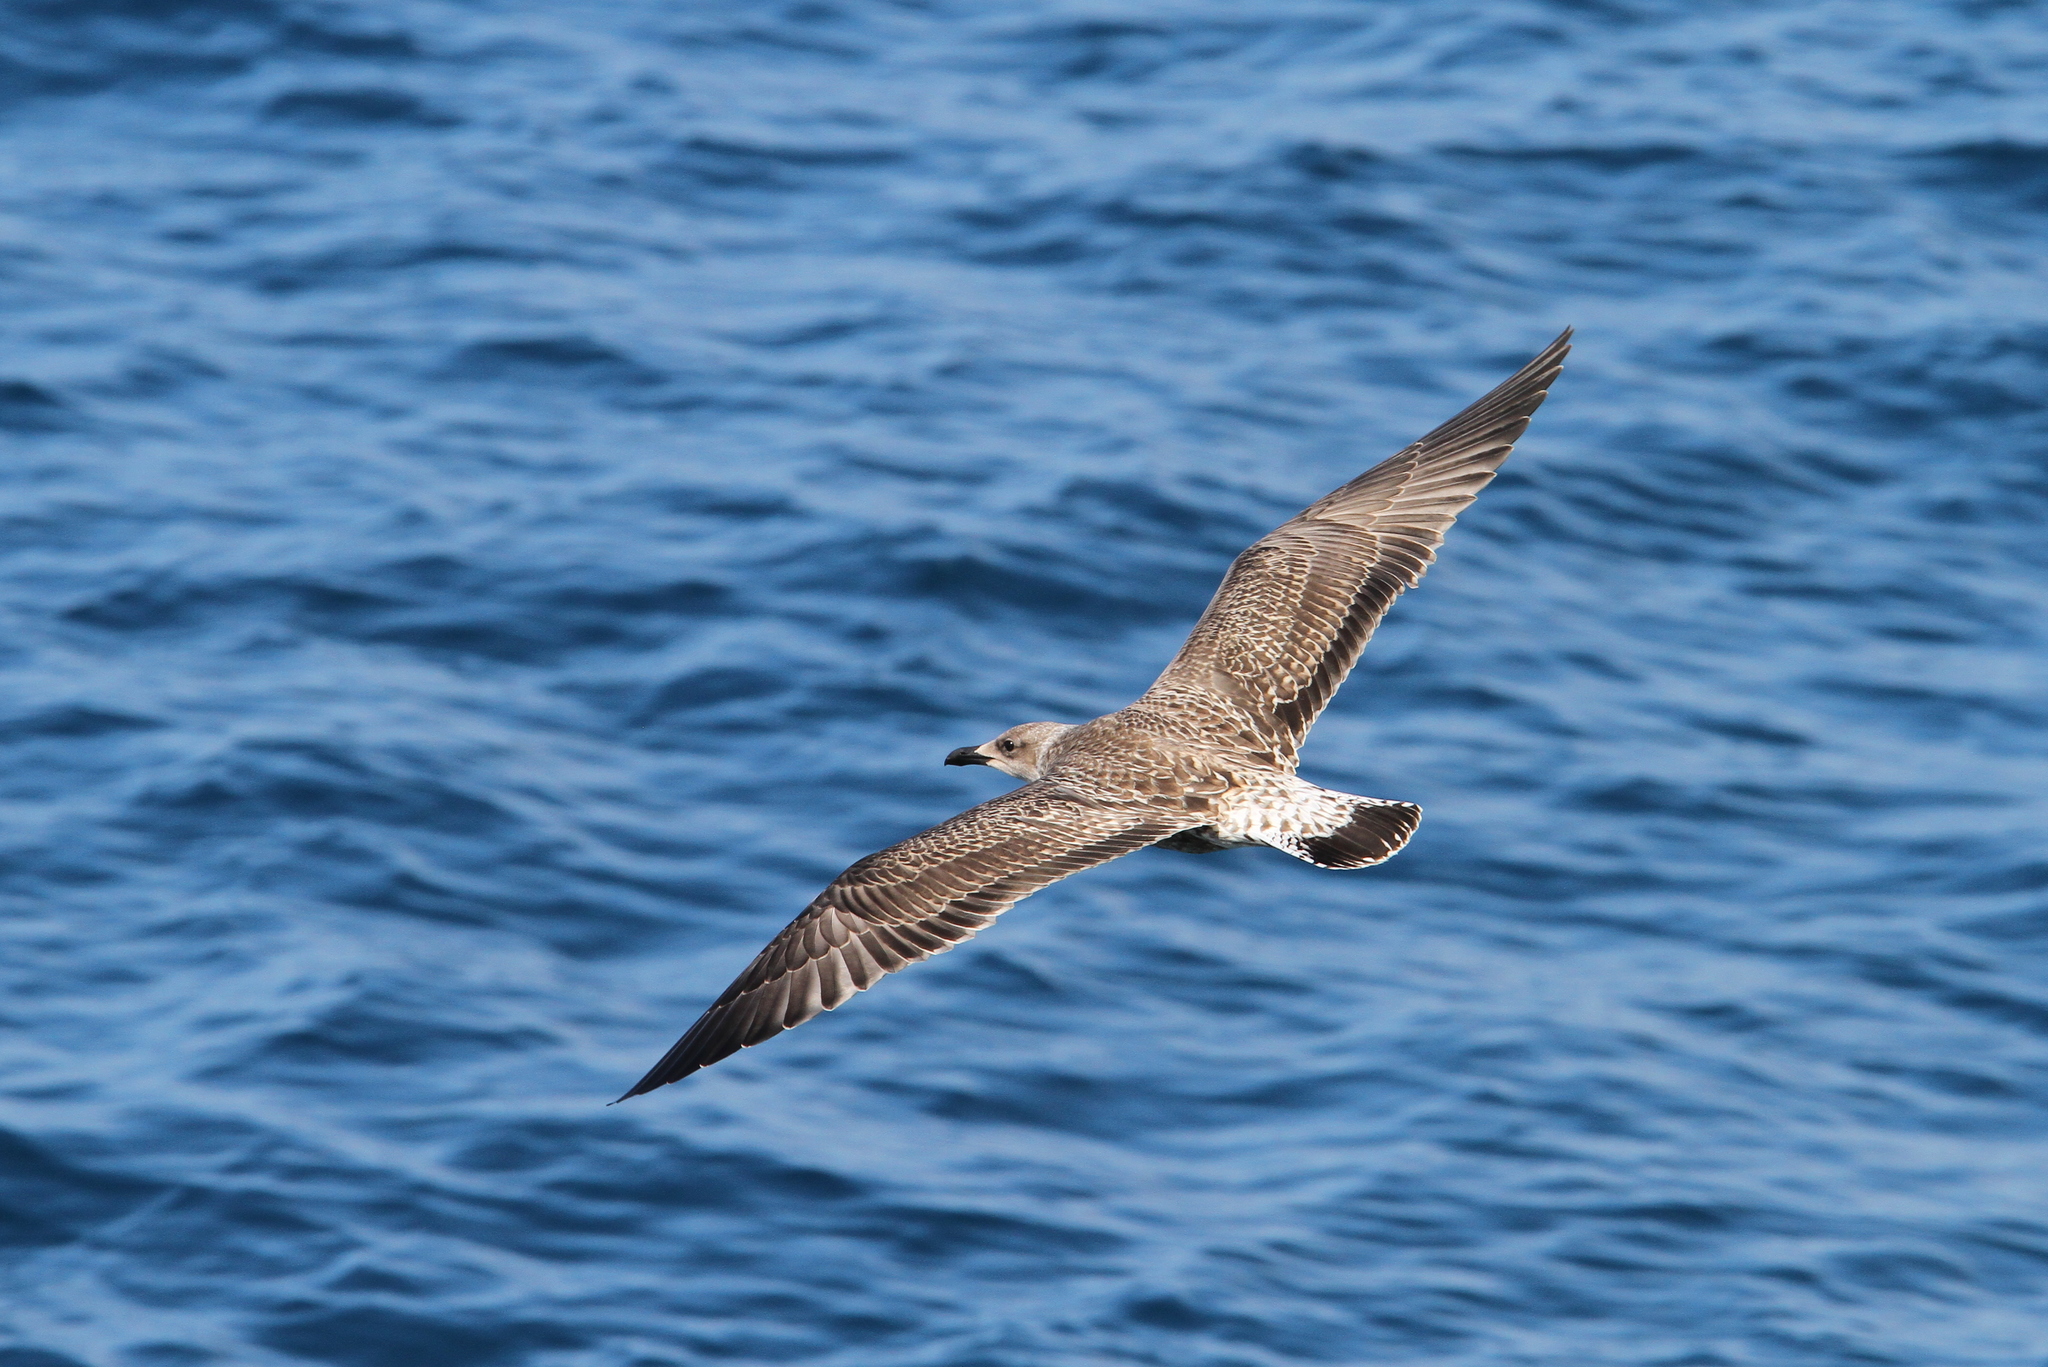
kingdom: Animalia
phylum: Chordata
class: Aves
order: Charadriiformes
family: Laridae
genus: Larus
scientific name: Larus michahellis
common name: Yellow-legged gull
